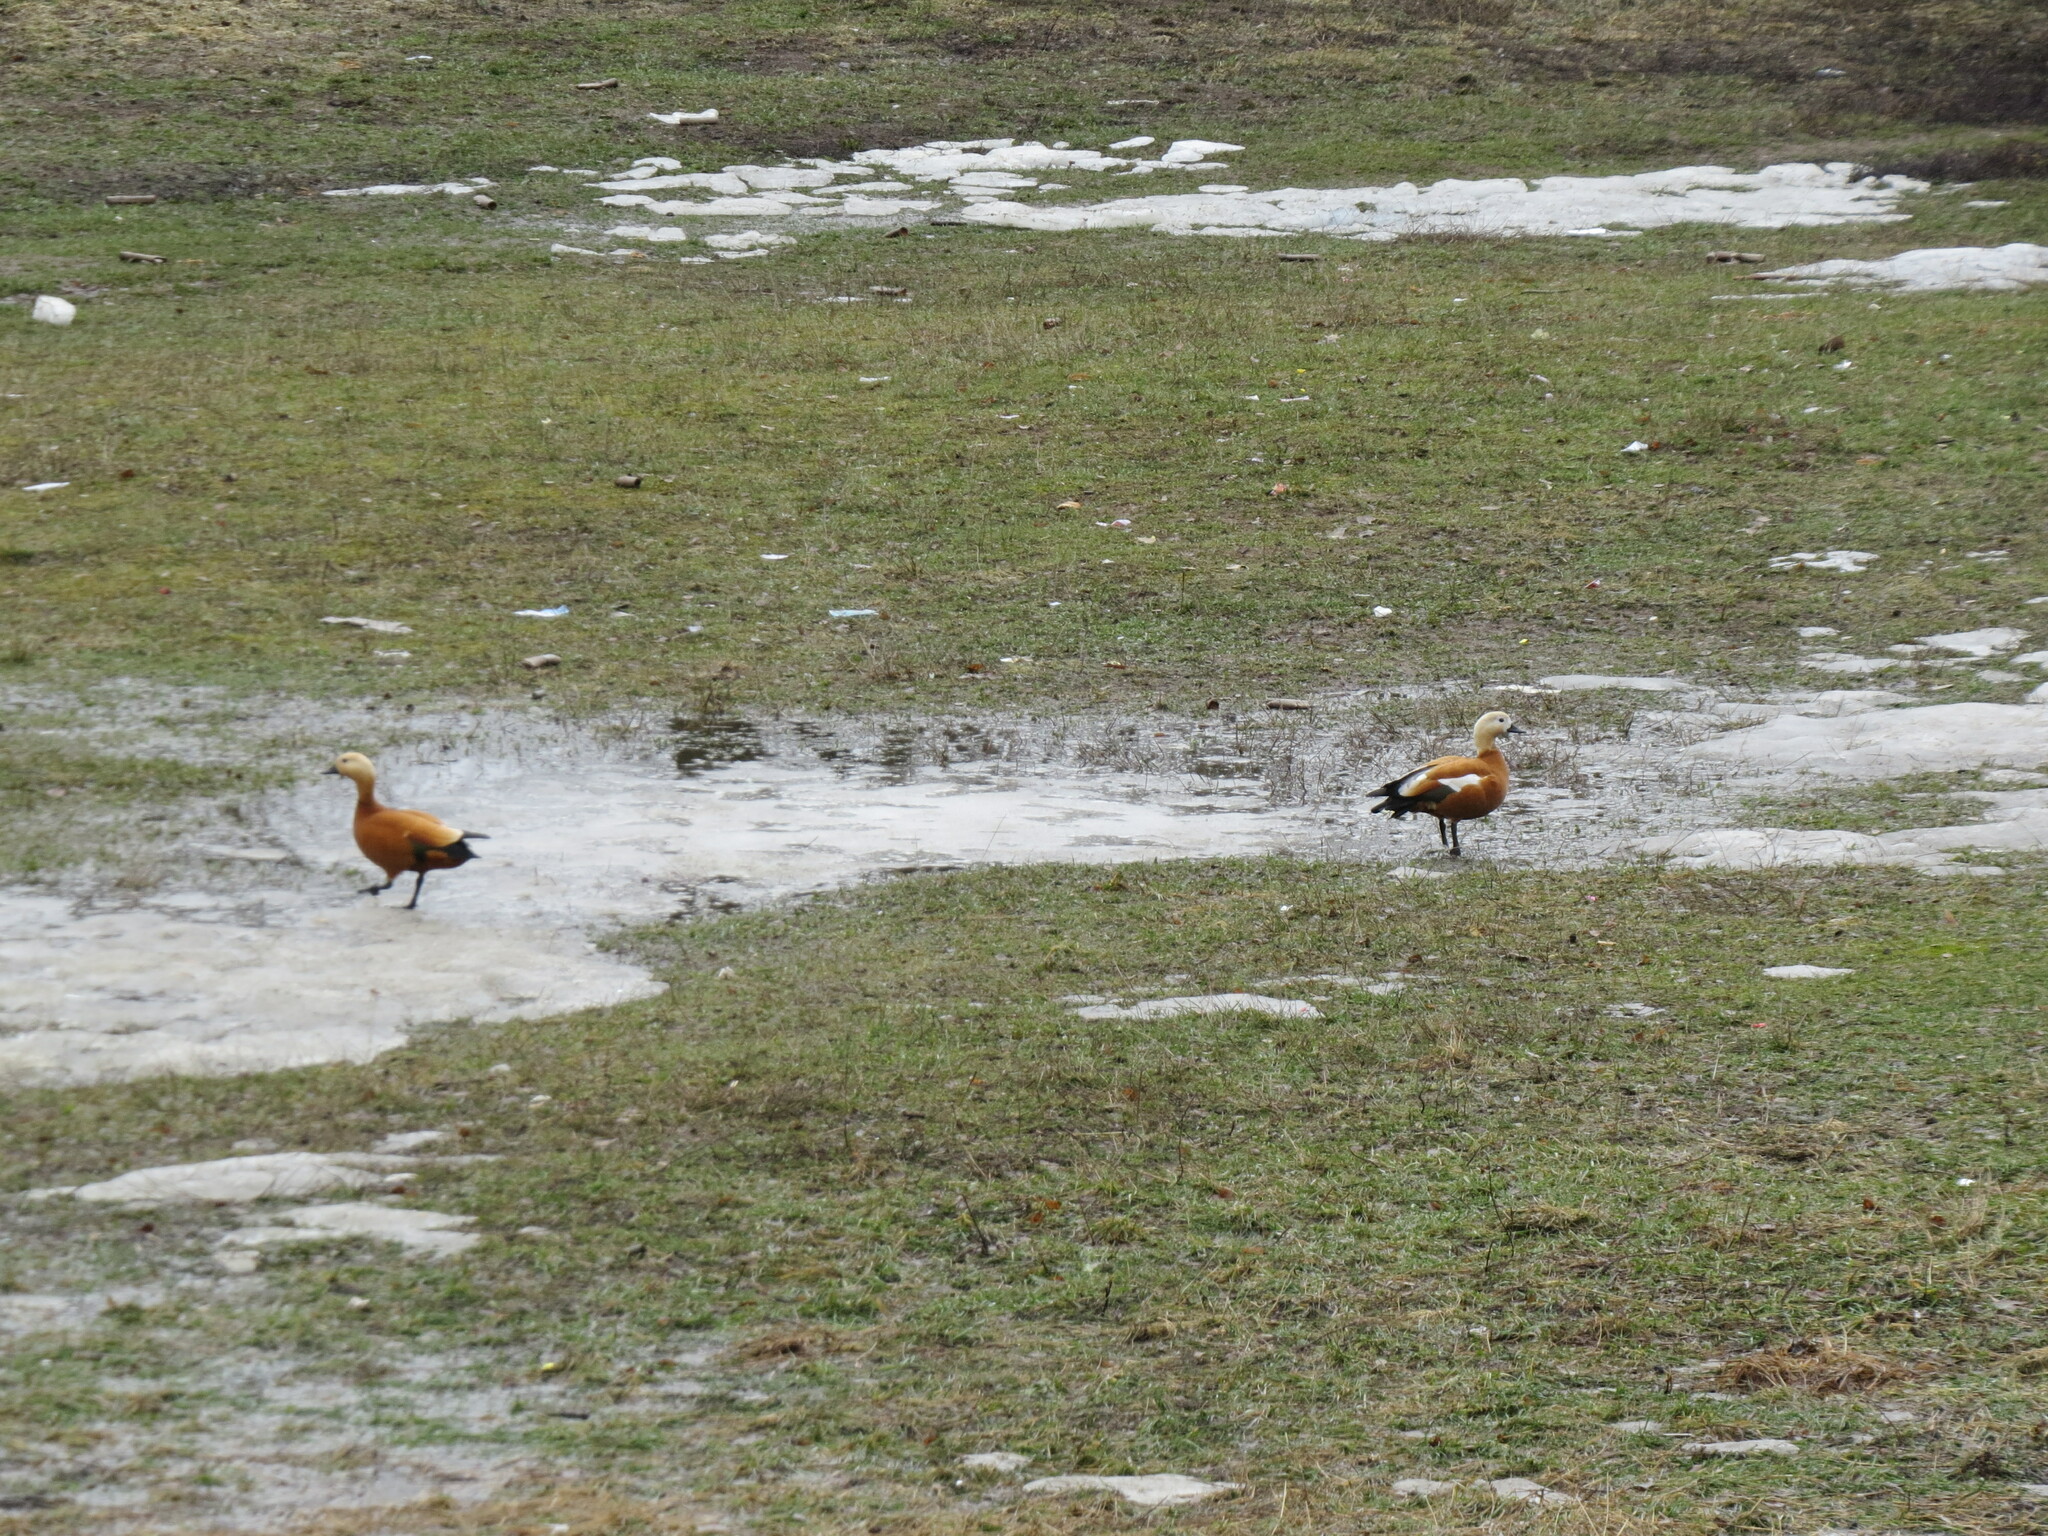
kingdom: Animalia
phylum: Chordata
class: Aves
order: Anseriformes
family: Anatidae
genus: Tadorna
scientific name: Tadorna ferruginea
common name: Ruddy shelduck
